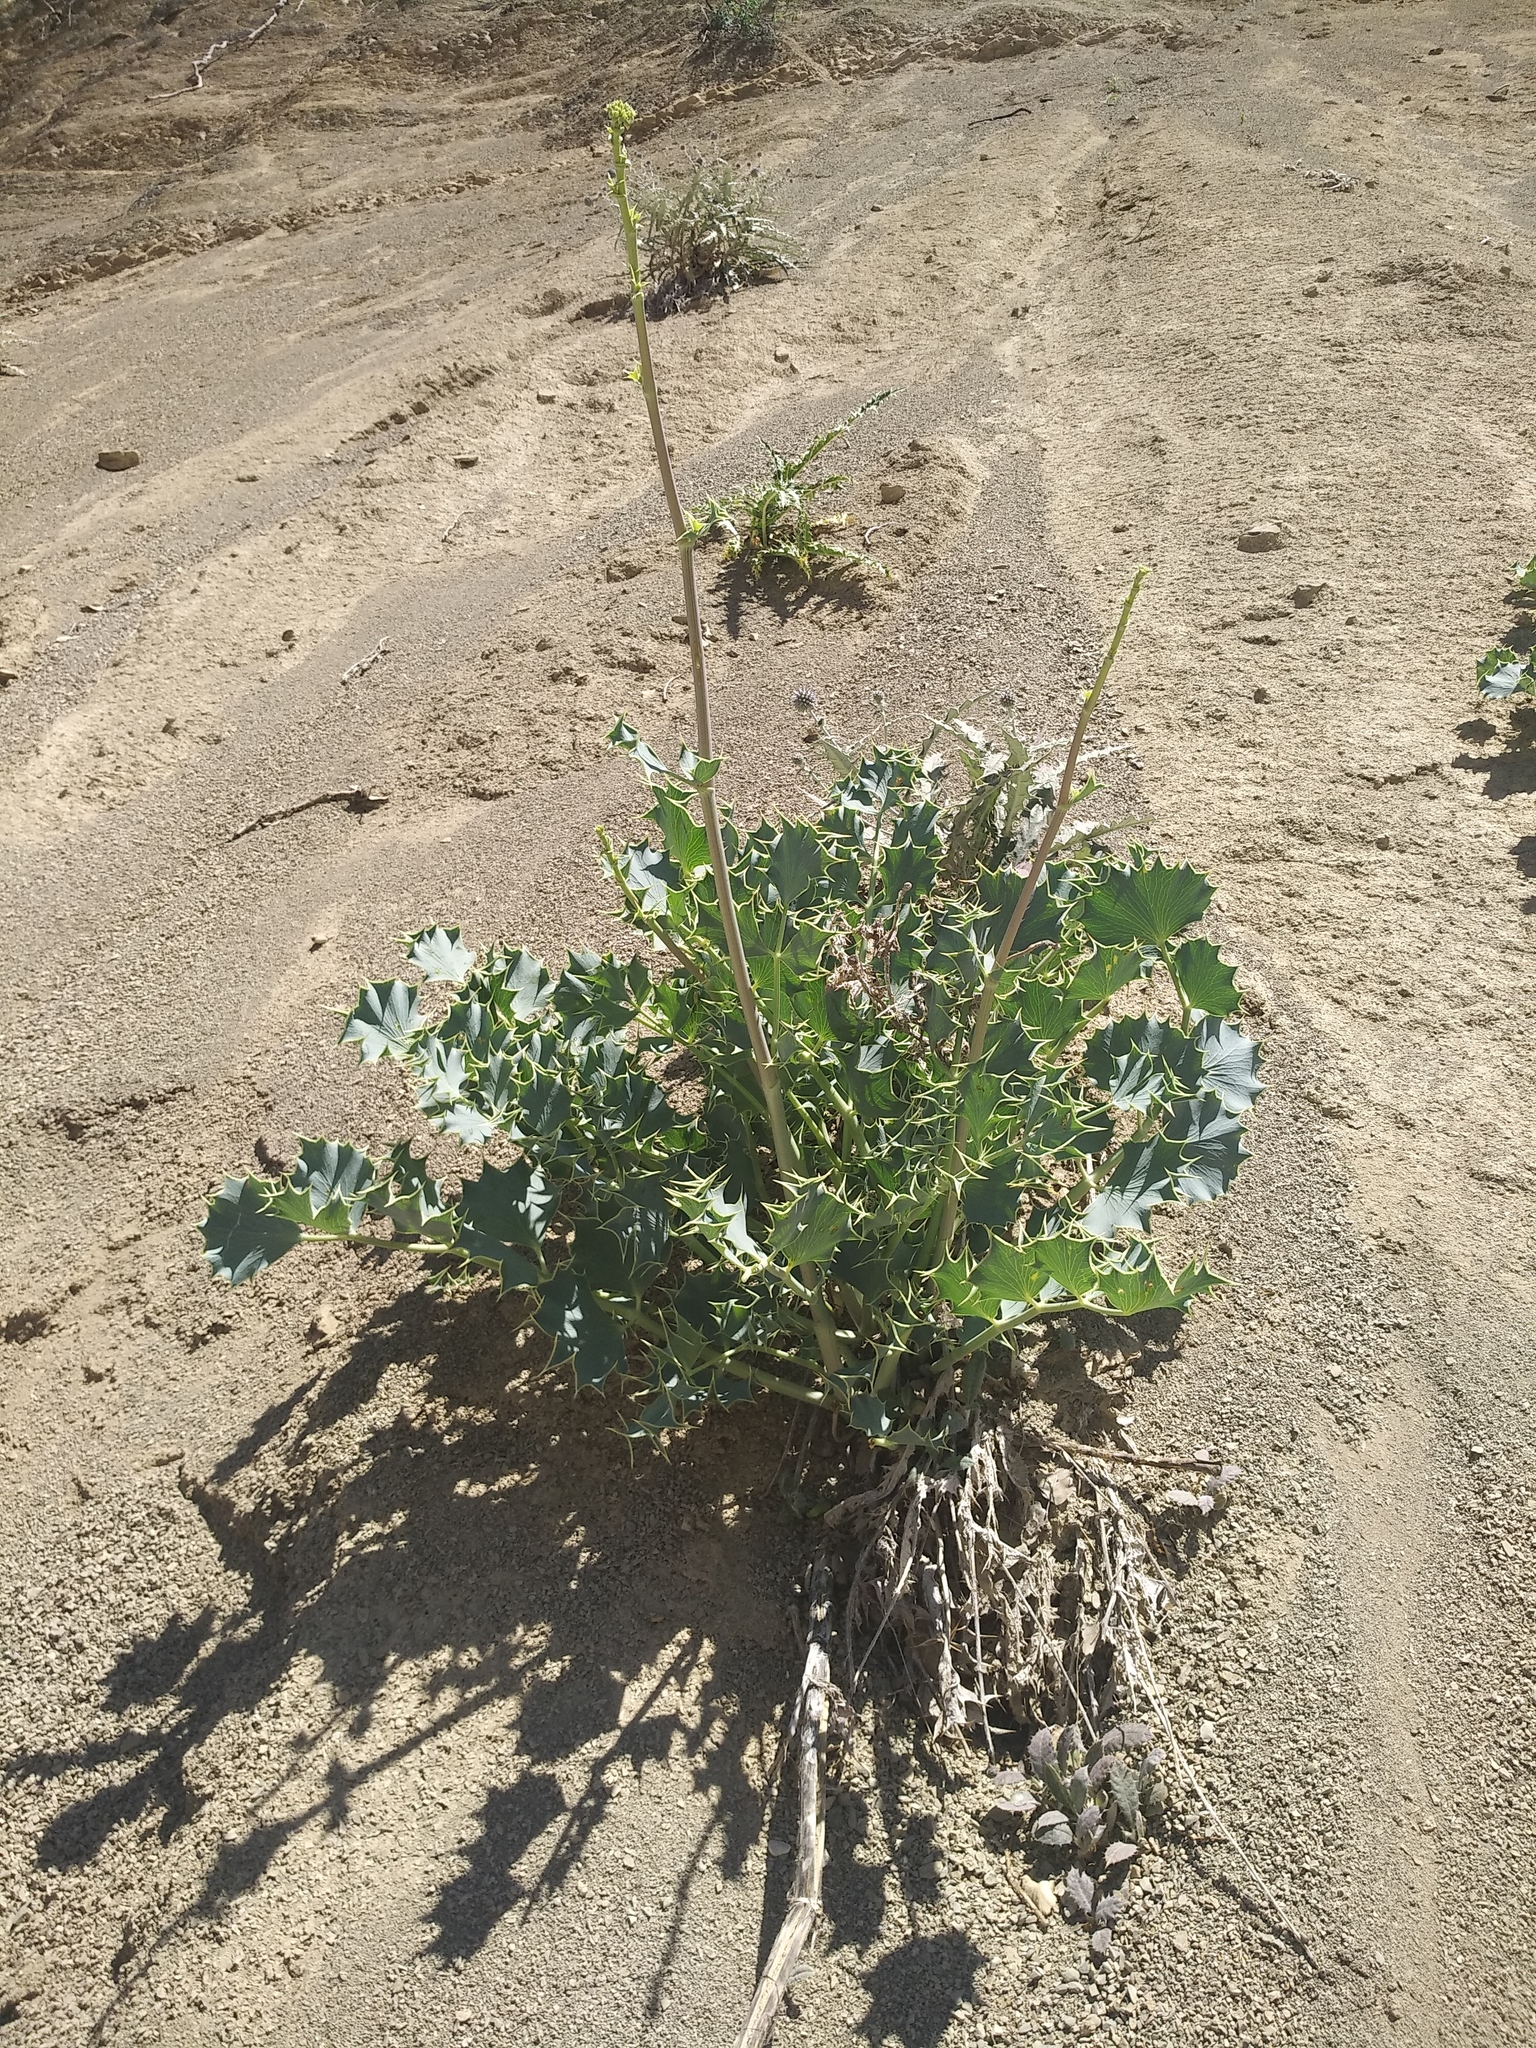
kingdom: Plantae
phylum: Tracheophyta
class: Magnoliopsida
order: Apiales
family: Apiaceae
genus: Azilia
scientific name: Azilia eryngioides
